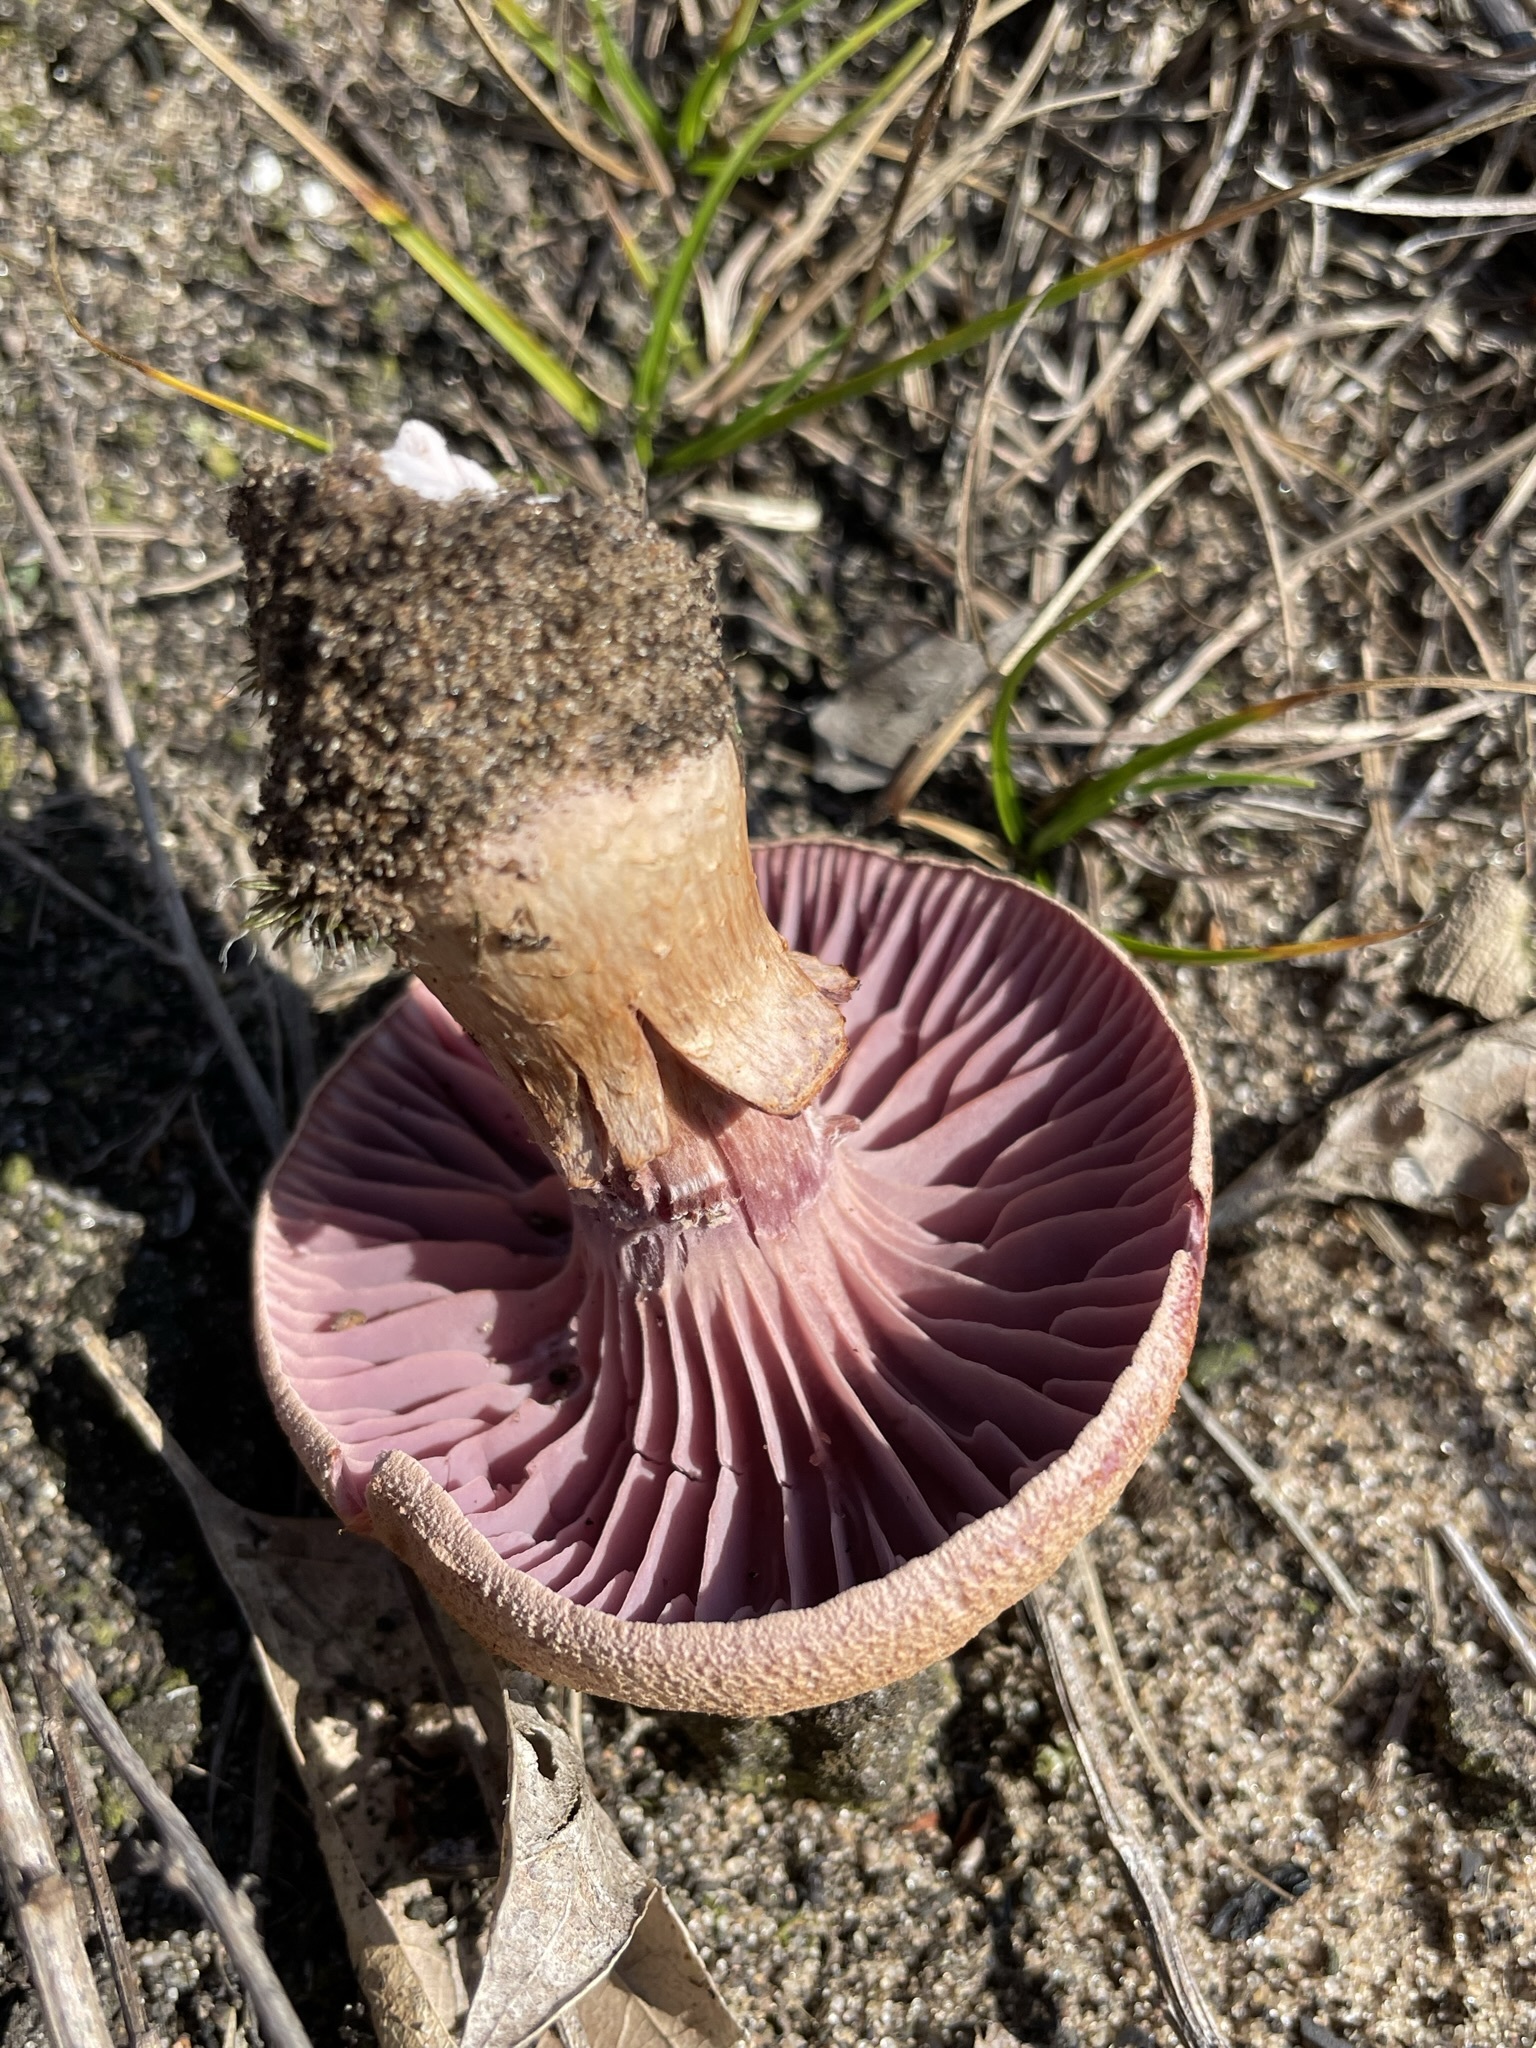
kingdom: Fungi
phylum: Basidiomycota
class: Agaricomycetes
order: Agaricales
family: Hydnangiaceae
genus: Laccaria
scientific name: Laccaria trullissata
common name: Sandy laccaria
